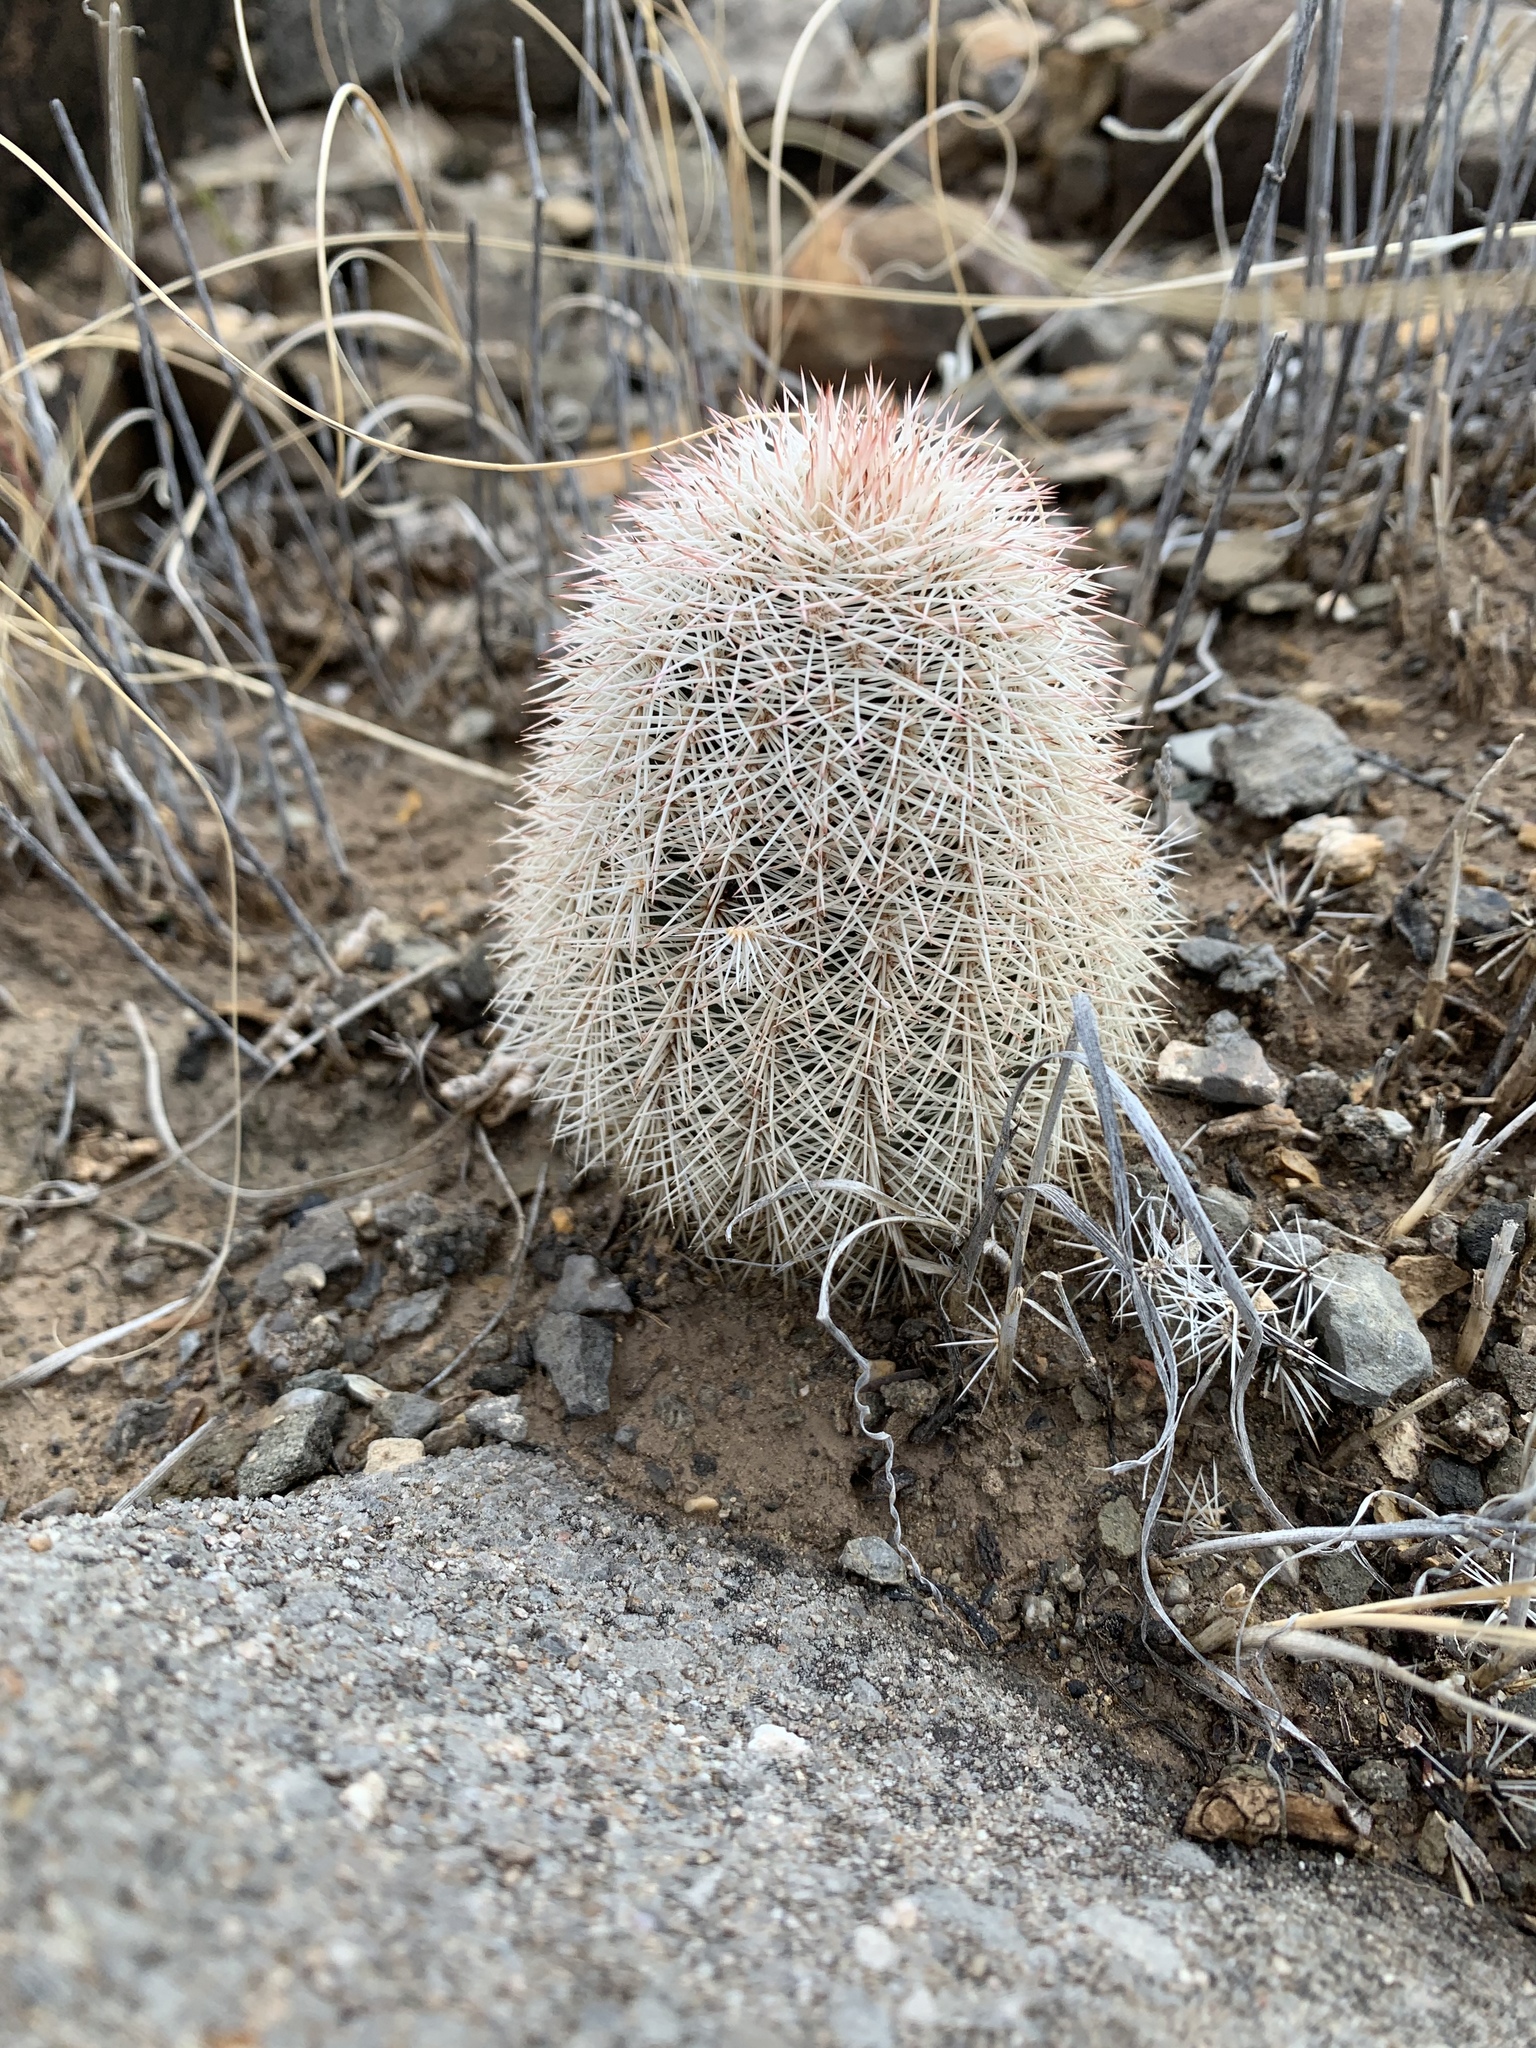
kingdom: Plantae
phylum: Tracheophyta
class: Magnoliopsida
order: Caryophyllales
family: Cactaceae
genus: Echinocereus
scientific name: Echinocereus dasyacanthus
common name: Spiny hedgehog cactus
